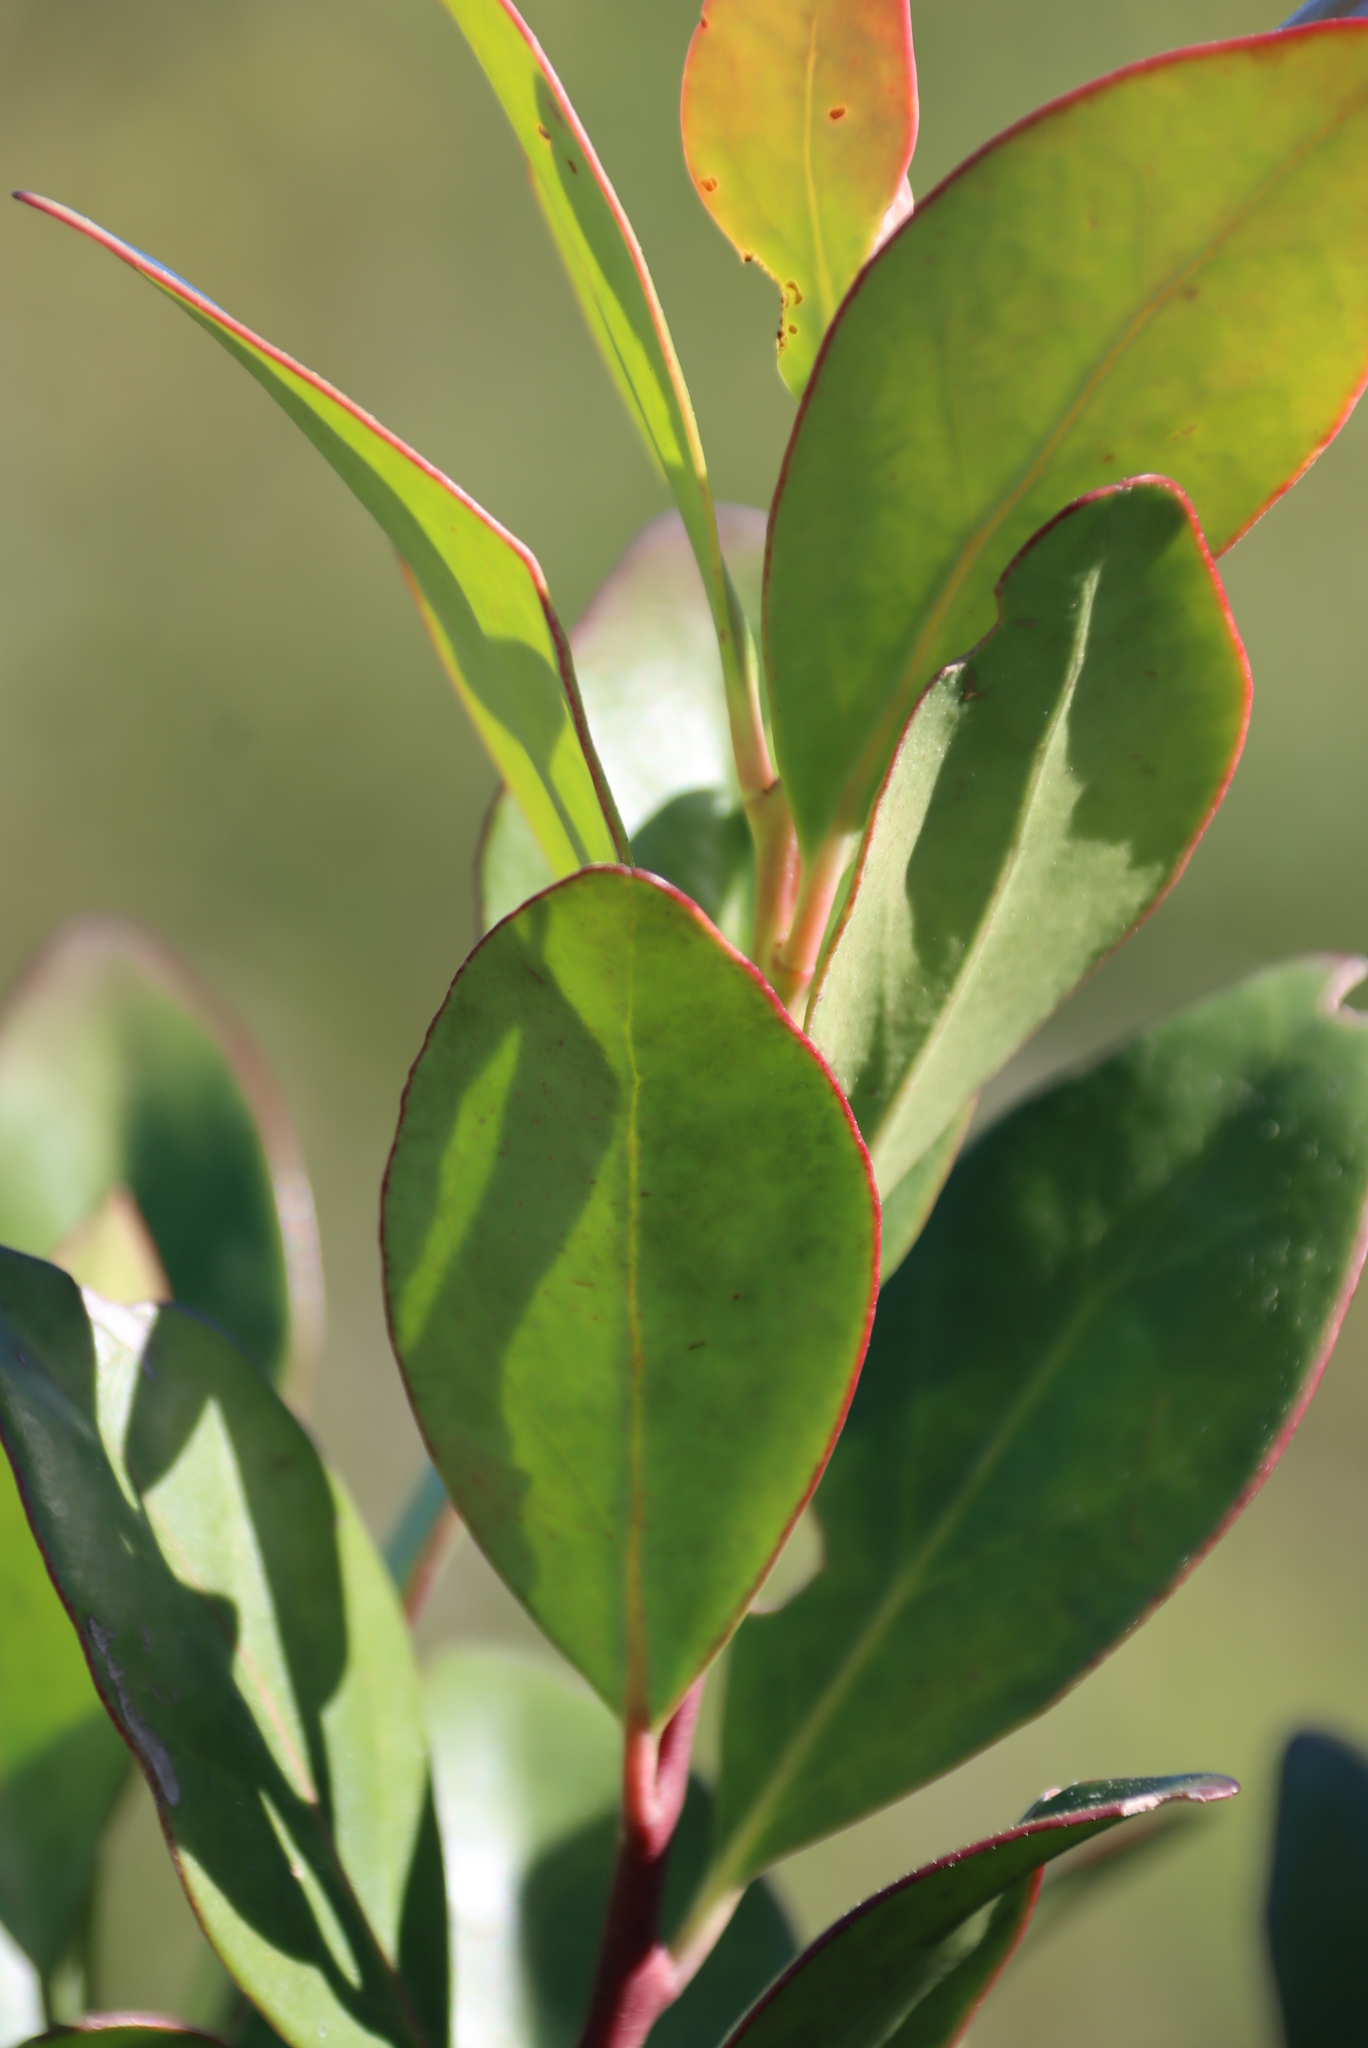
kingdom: Plantae
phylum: Tracheophyta
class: Magnoliopsida
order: Celastrales
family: Celastraceae
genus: Pterocelastrus
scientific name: Pterocelastrus tricuspidatus
